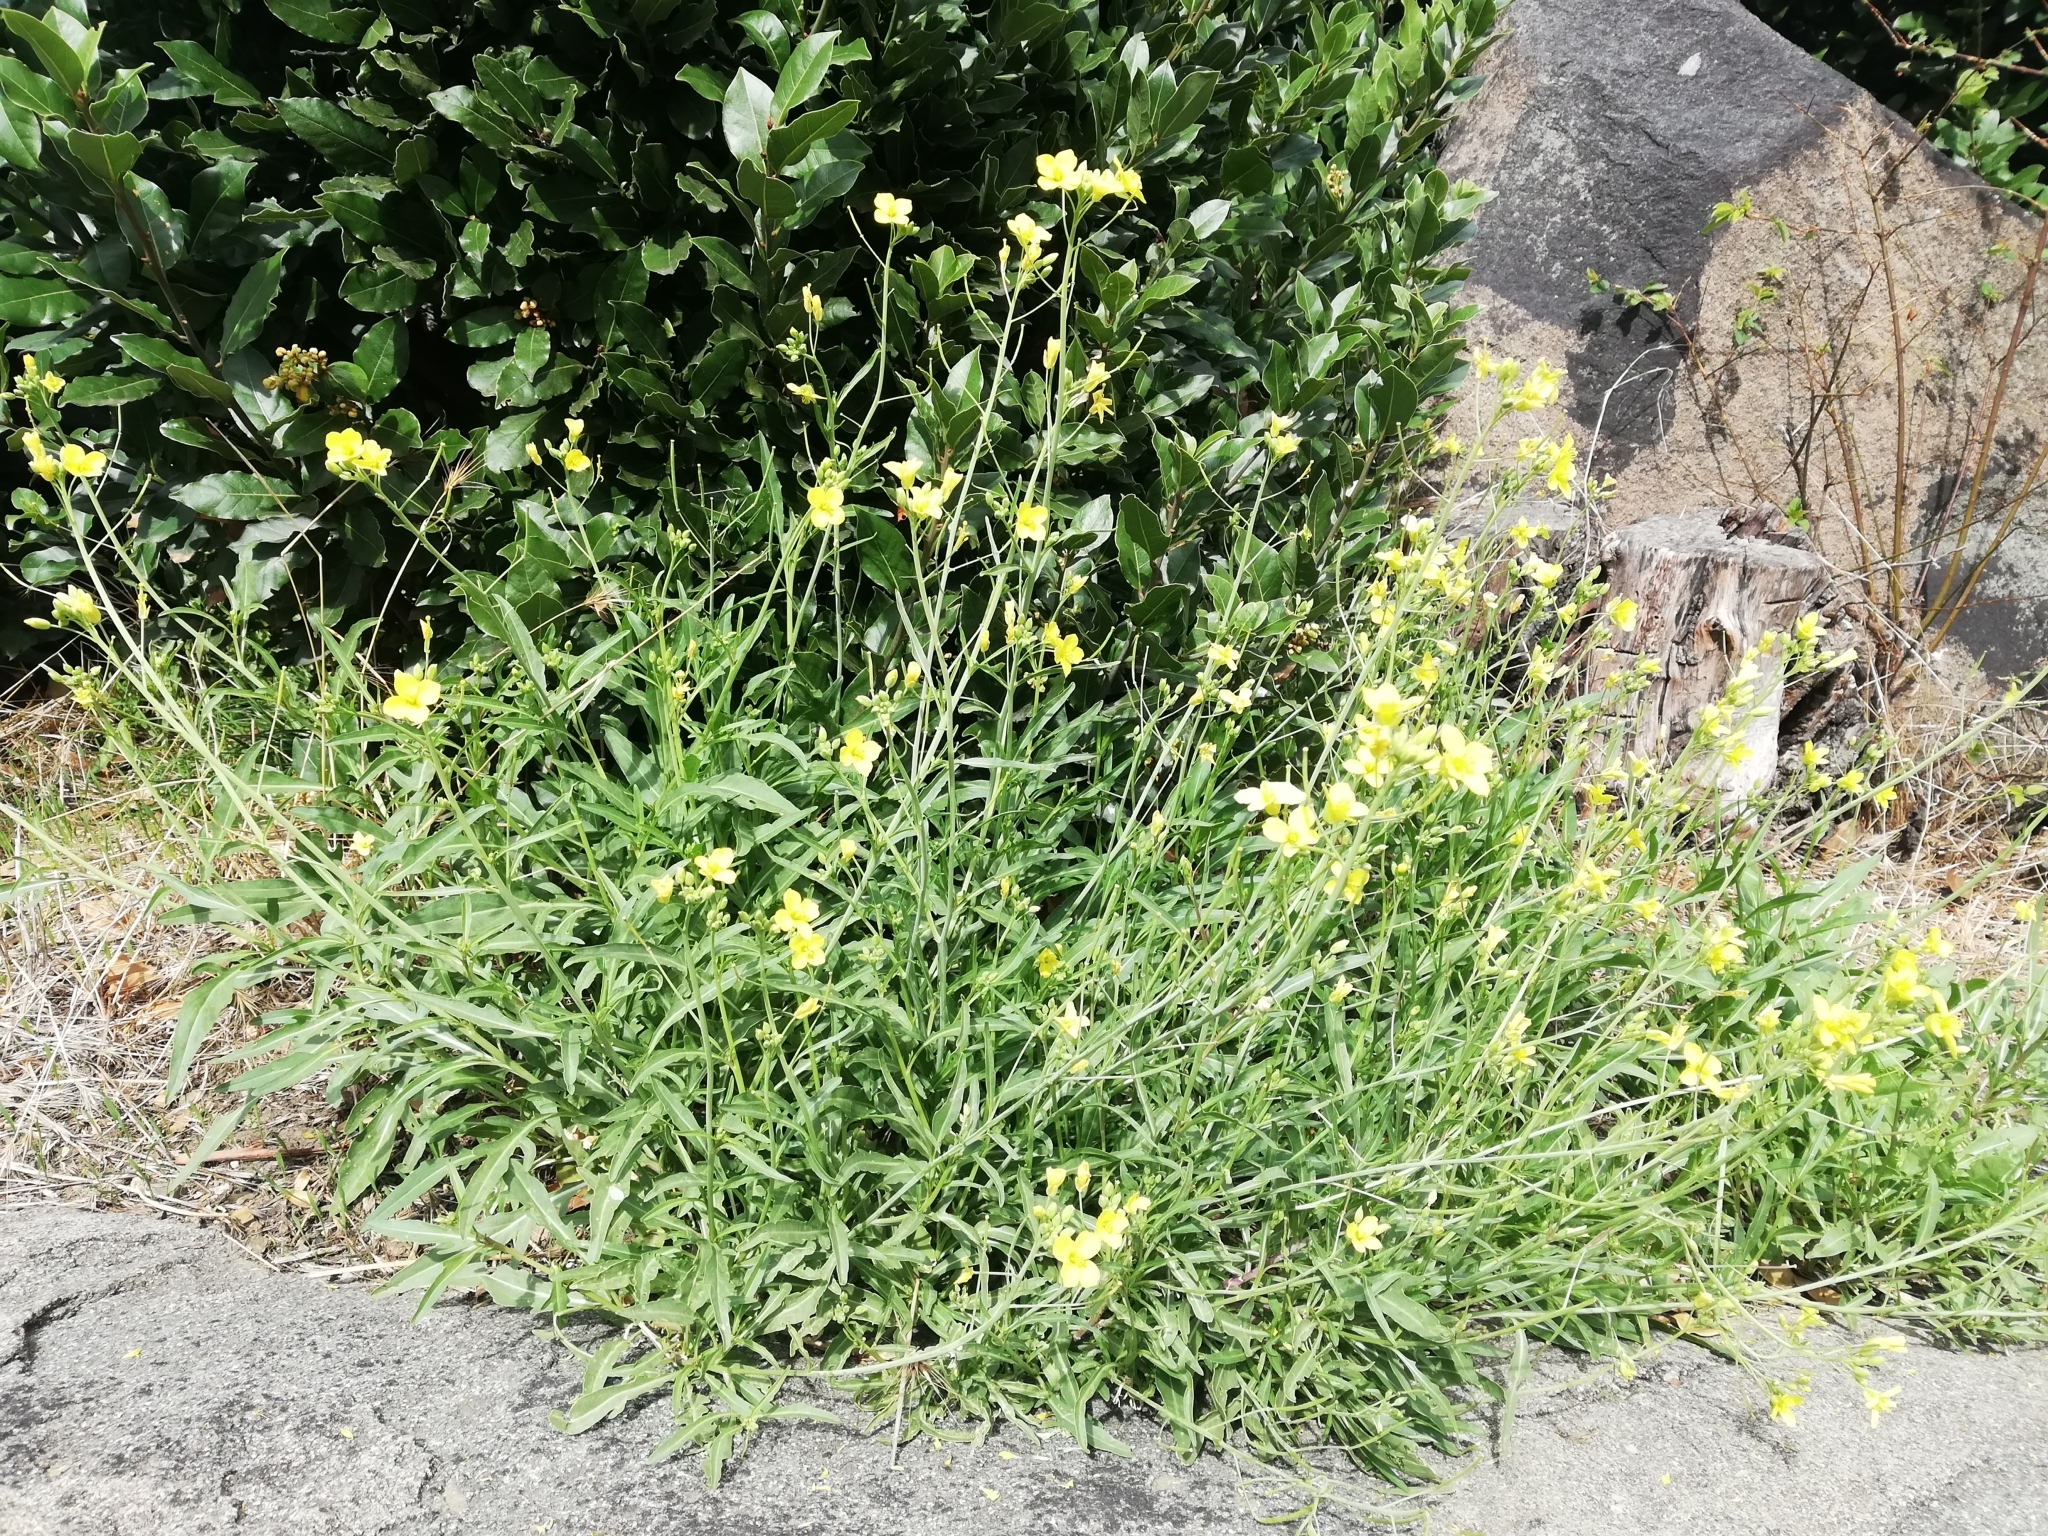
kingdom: Plantae
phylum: Tracheophyta
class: Magnoliopsida
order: Brassicales
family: Brassicaceae
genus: Diplotaxis
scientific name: Diplotaxis tenuifolia
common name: Perennial wall-rocket
